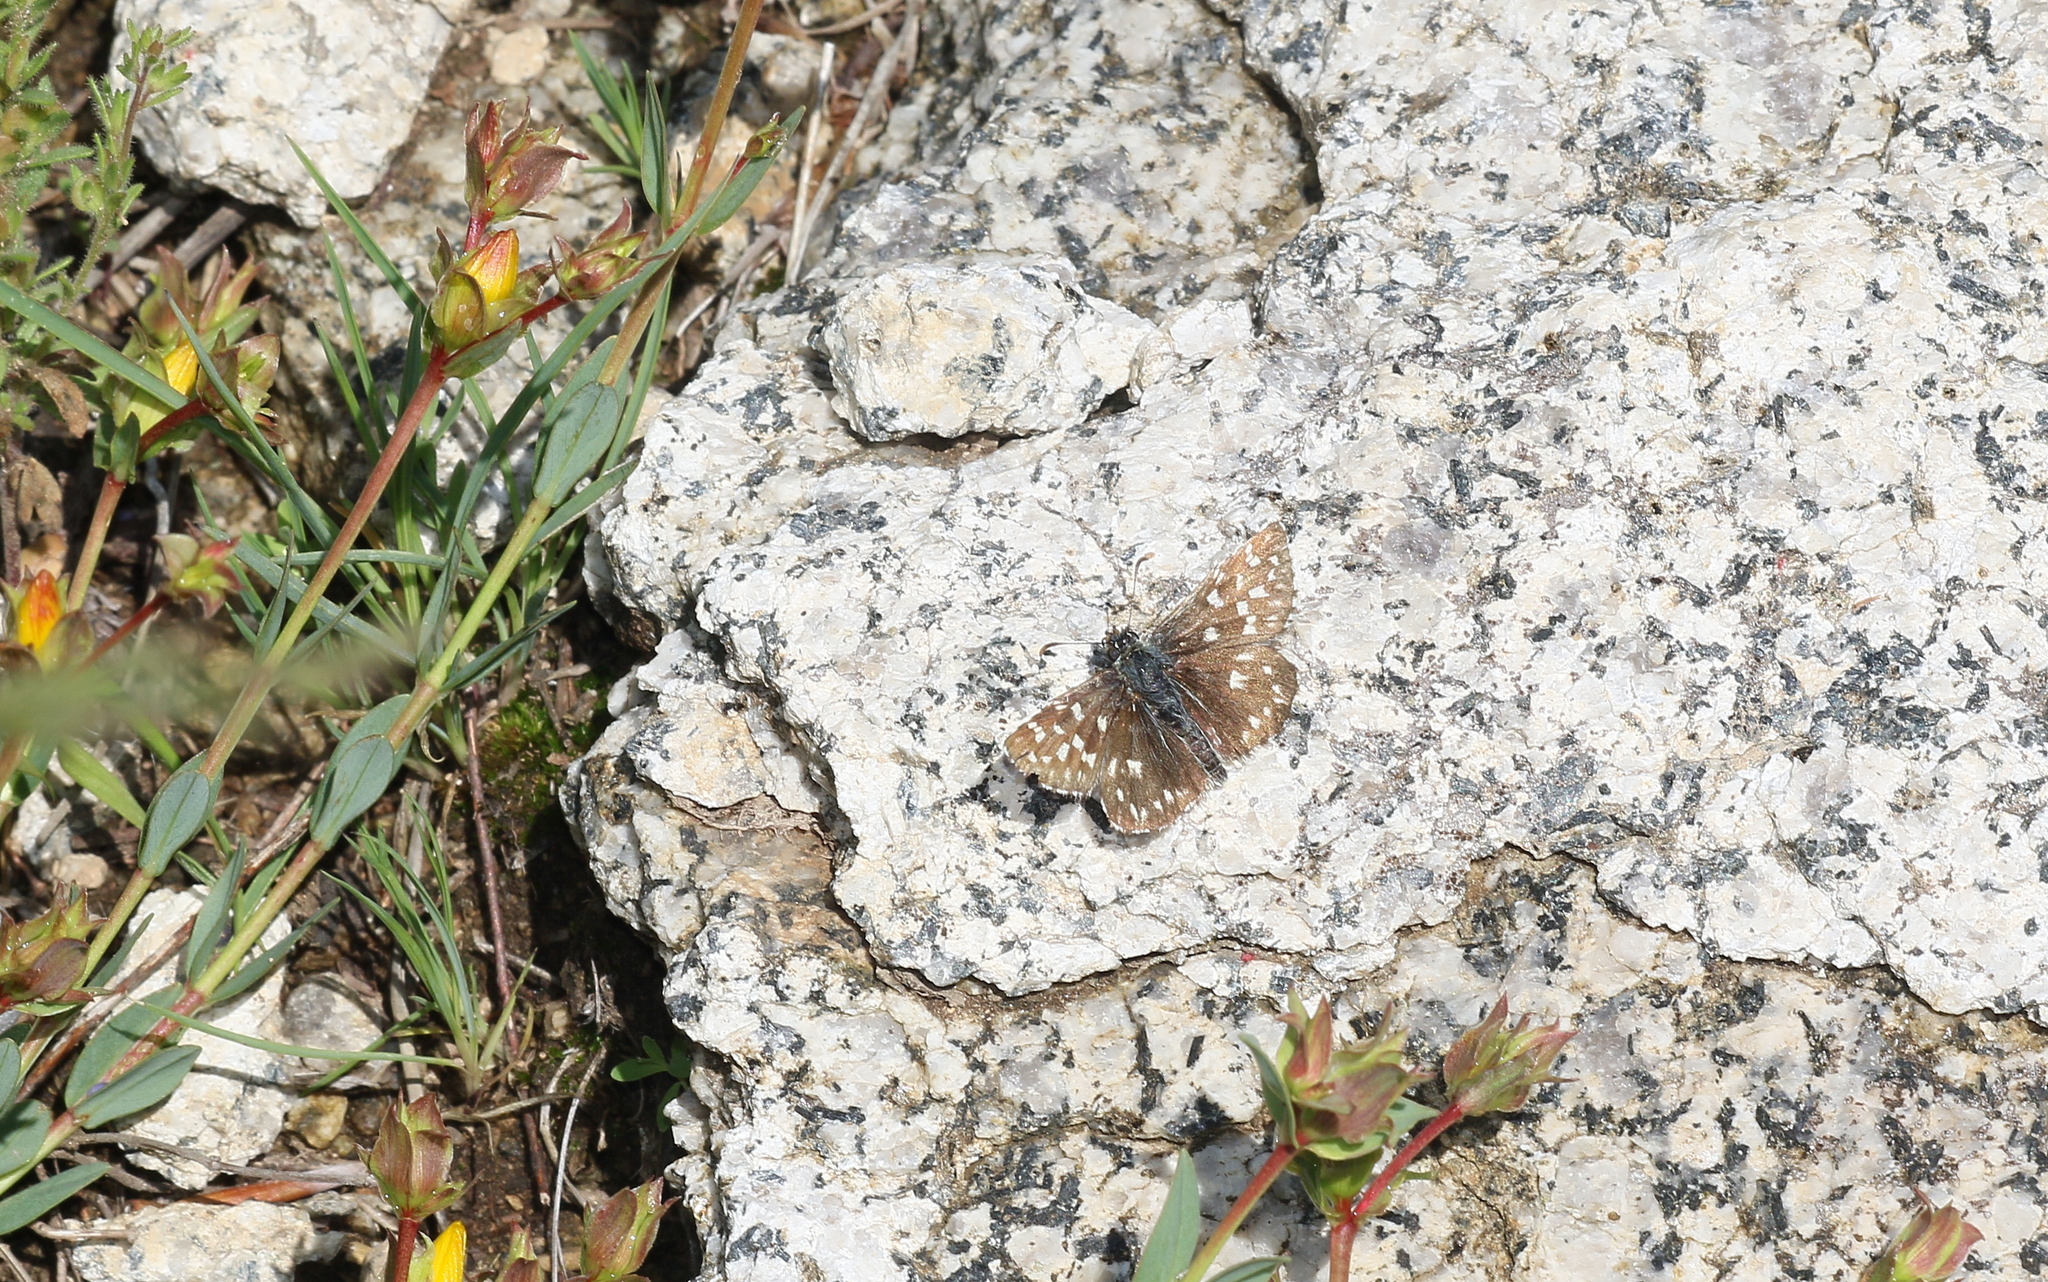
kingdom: Animalia
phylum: Arthropoda
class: Insecta
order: Lepidoptera
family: Hesperiidae
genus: Pyrgus
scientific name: Pyrgus malvae
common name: Grizzled skipper
